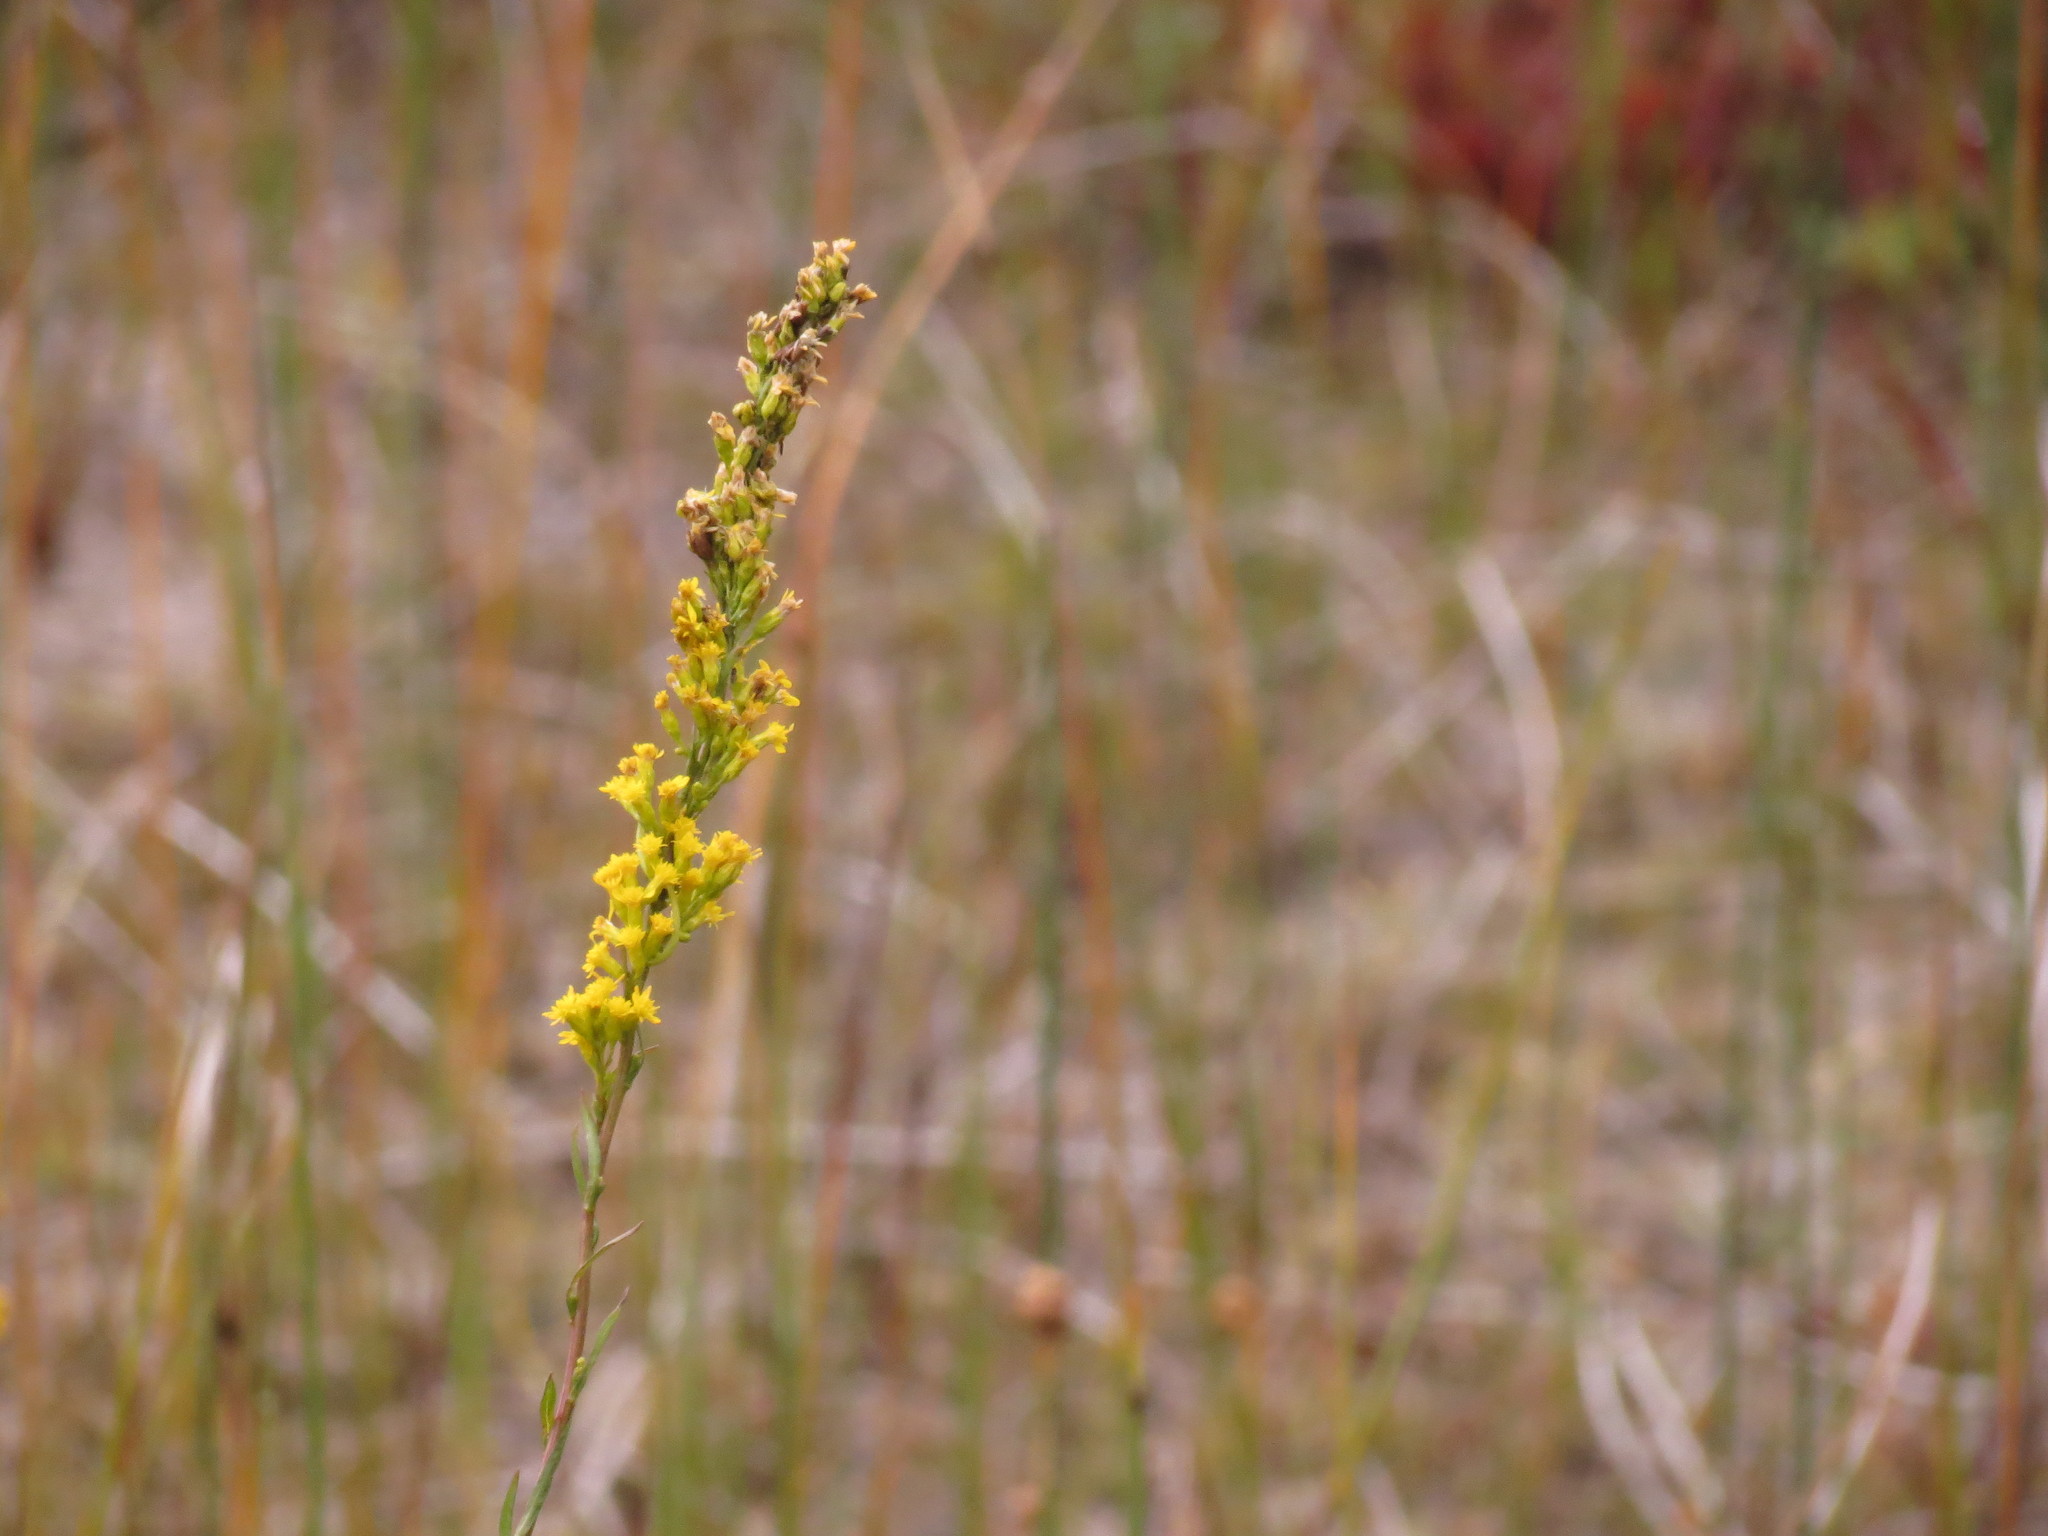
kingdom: Plantae
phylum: Tracheophyta
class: Magnoliopsida
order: Asterales
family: Asteraceae
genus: Solidago
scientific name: Solidago uliginosa
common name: Bog goldenrod
